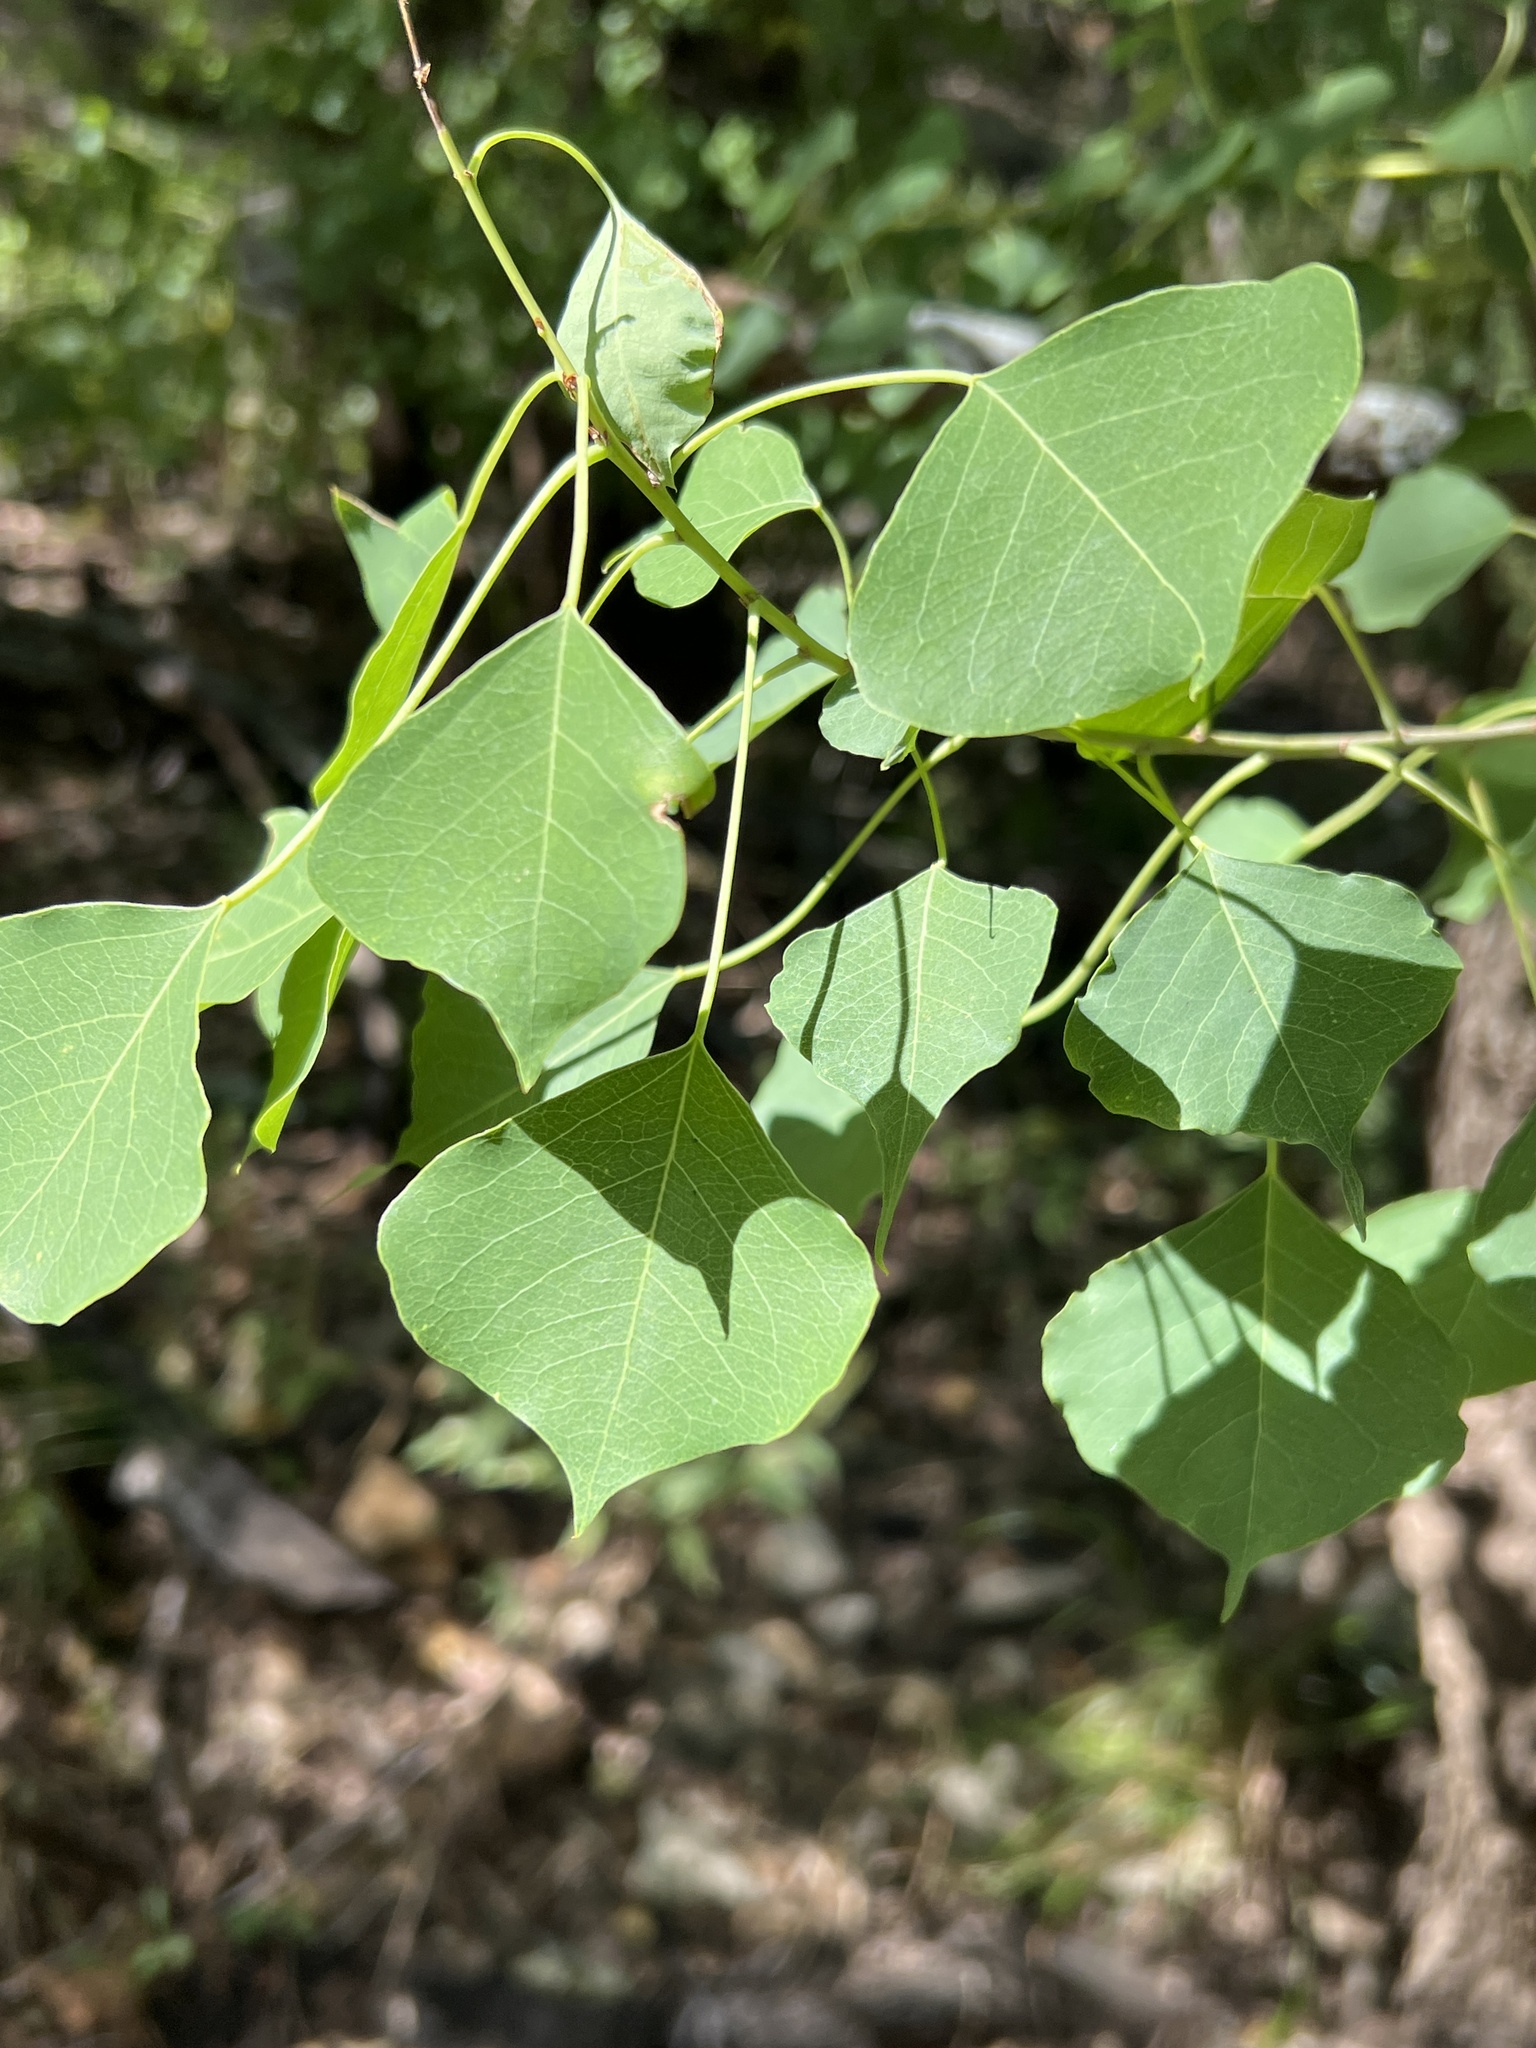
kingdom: Plantae
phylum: Tracheophyta
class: Magnoliopsida
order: Malpighiales
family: Euphorbiaceae
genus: Triadica
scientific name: Triadica sebifera
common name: Chinese tallow
